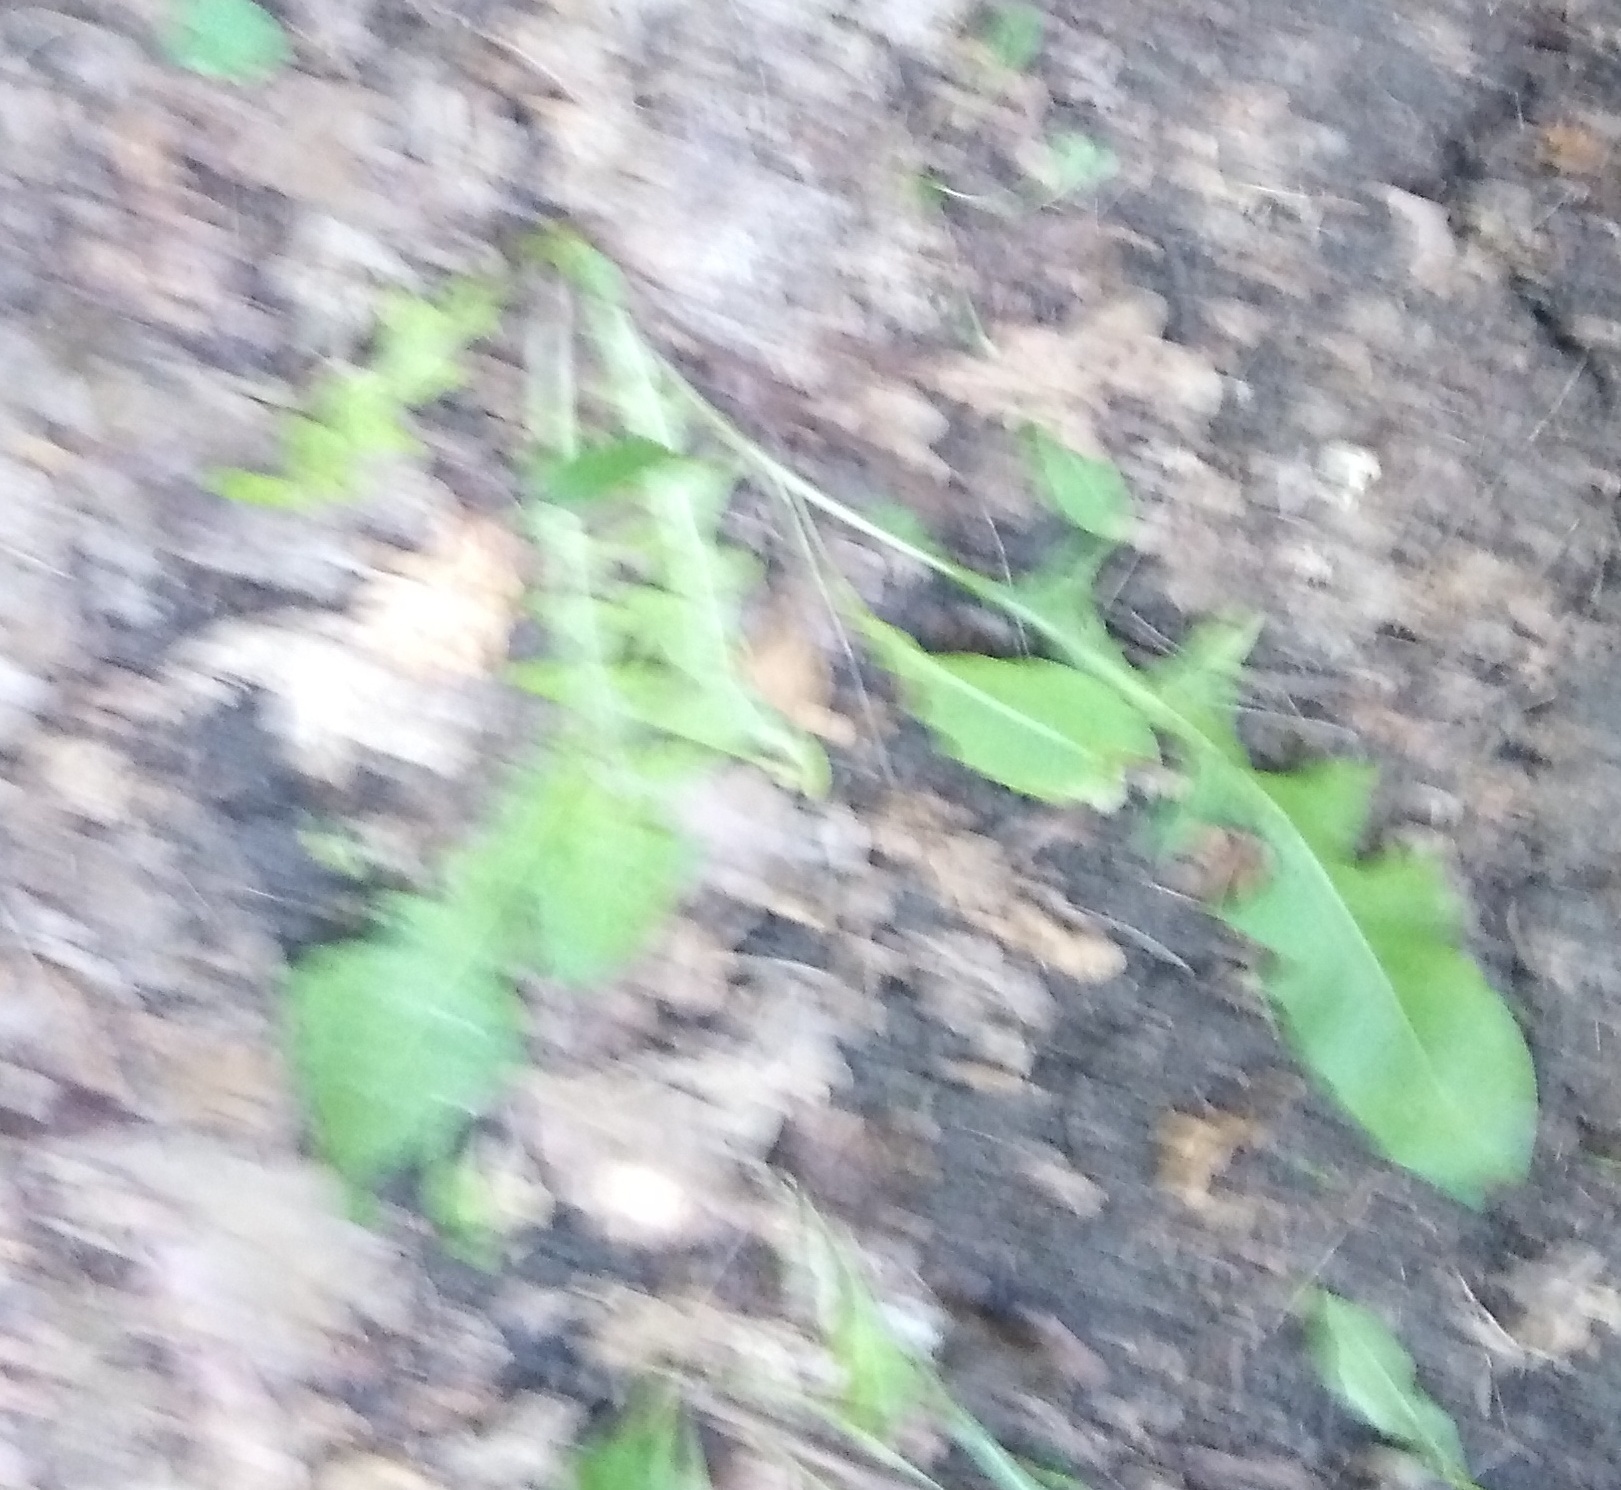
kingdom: Plantae
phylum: Tracheophyta
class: Magnoliopsida
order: Asterales
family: Asteraceae
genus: Taraxacum
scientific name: Taraxacum officinale
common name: Common dandelion
